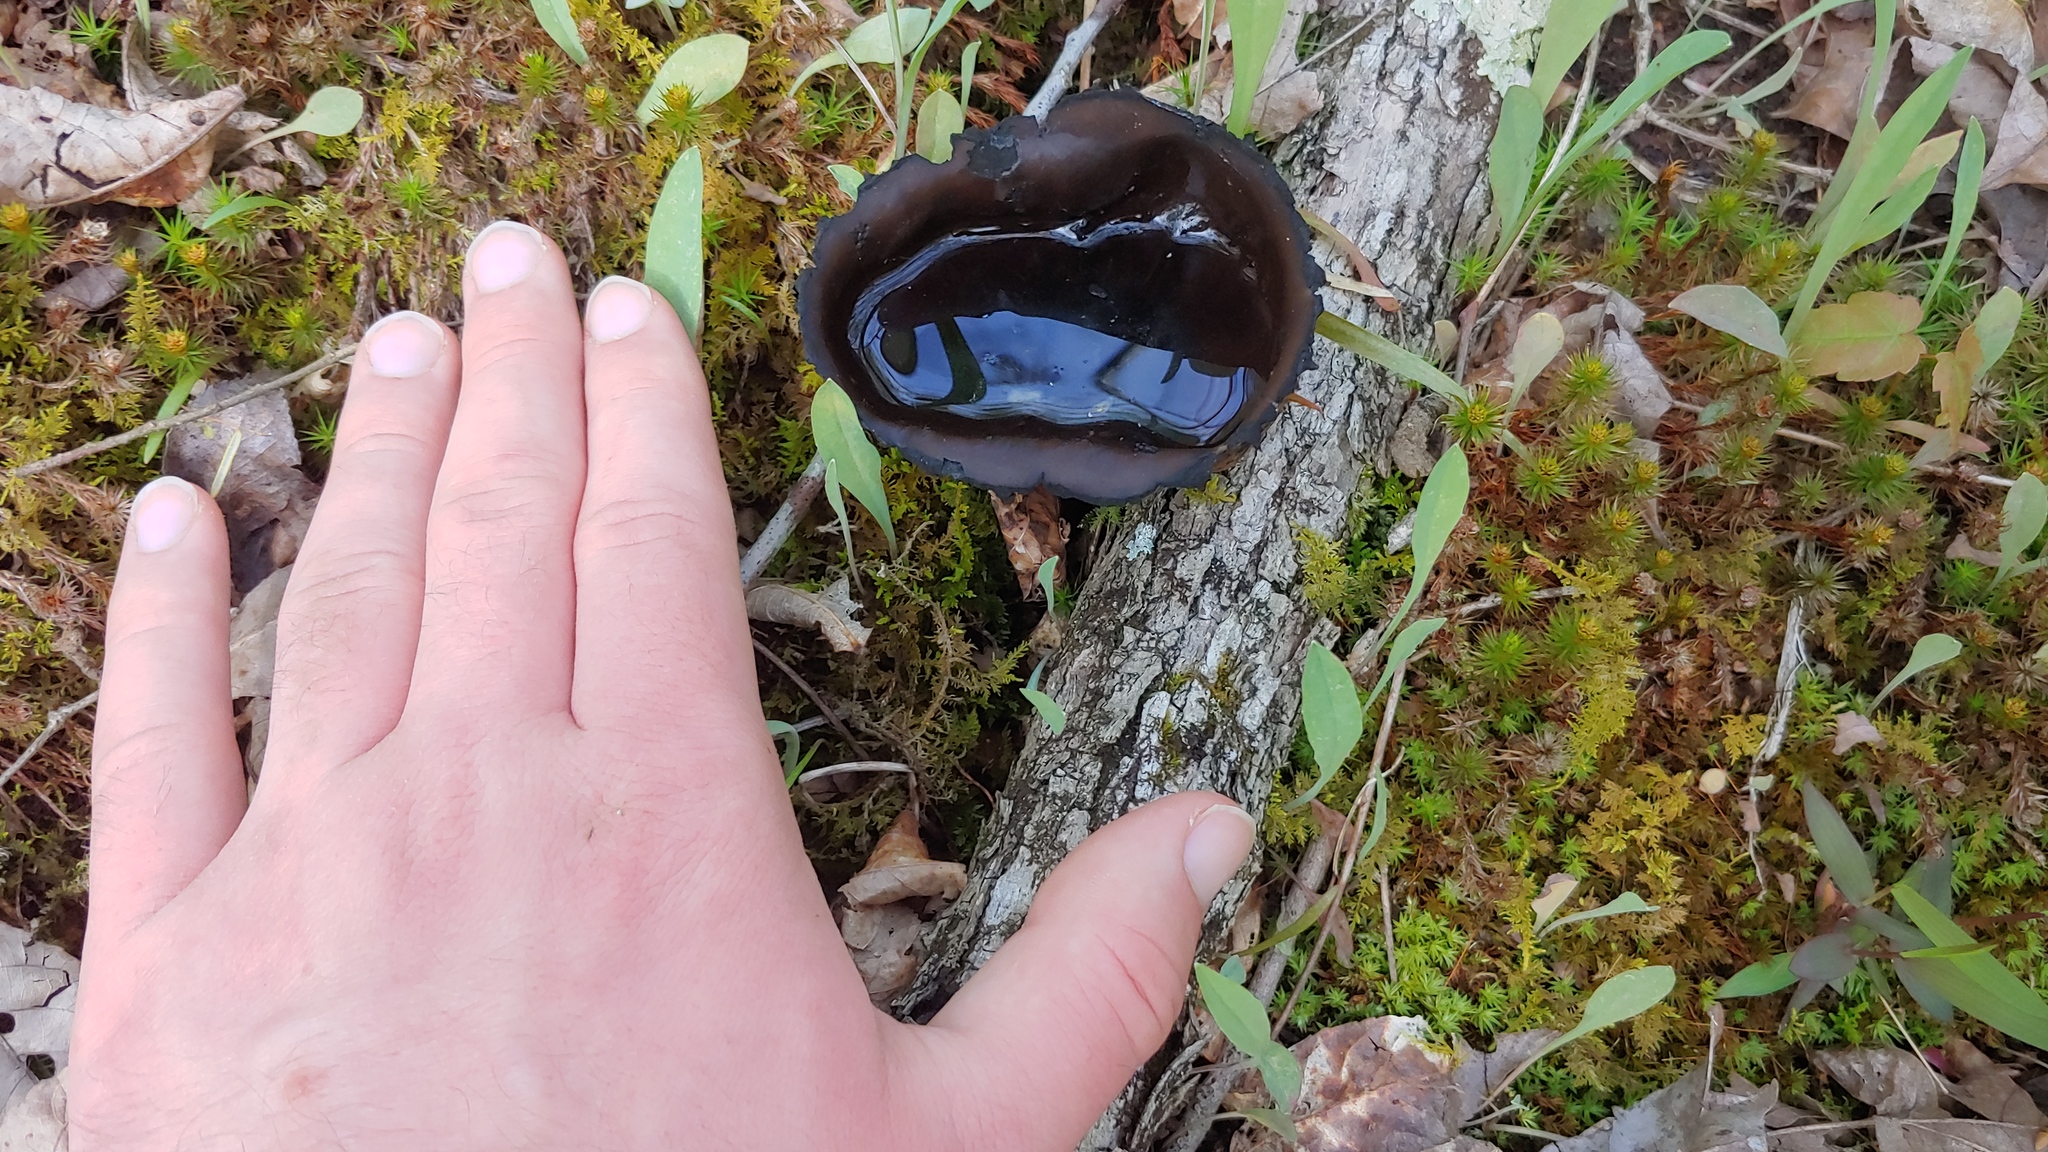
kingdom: Fungi
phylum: Ascomycota
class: Pezizomycetes
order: Pezizales
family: Sarcosomataceae
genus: Urnula
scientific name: Urnula craterium
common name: Devil's urn
